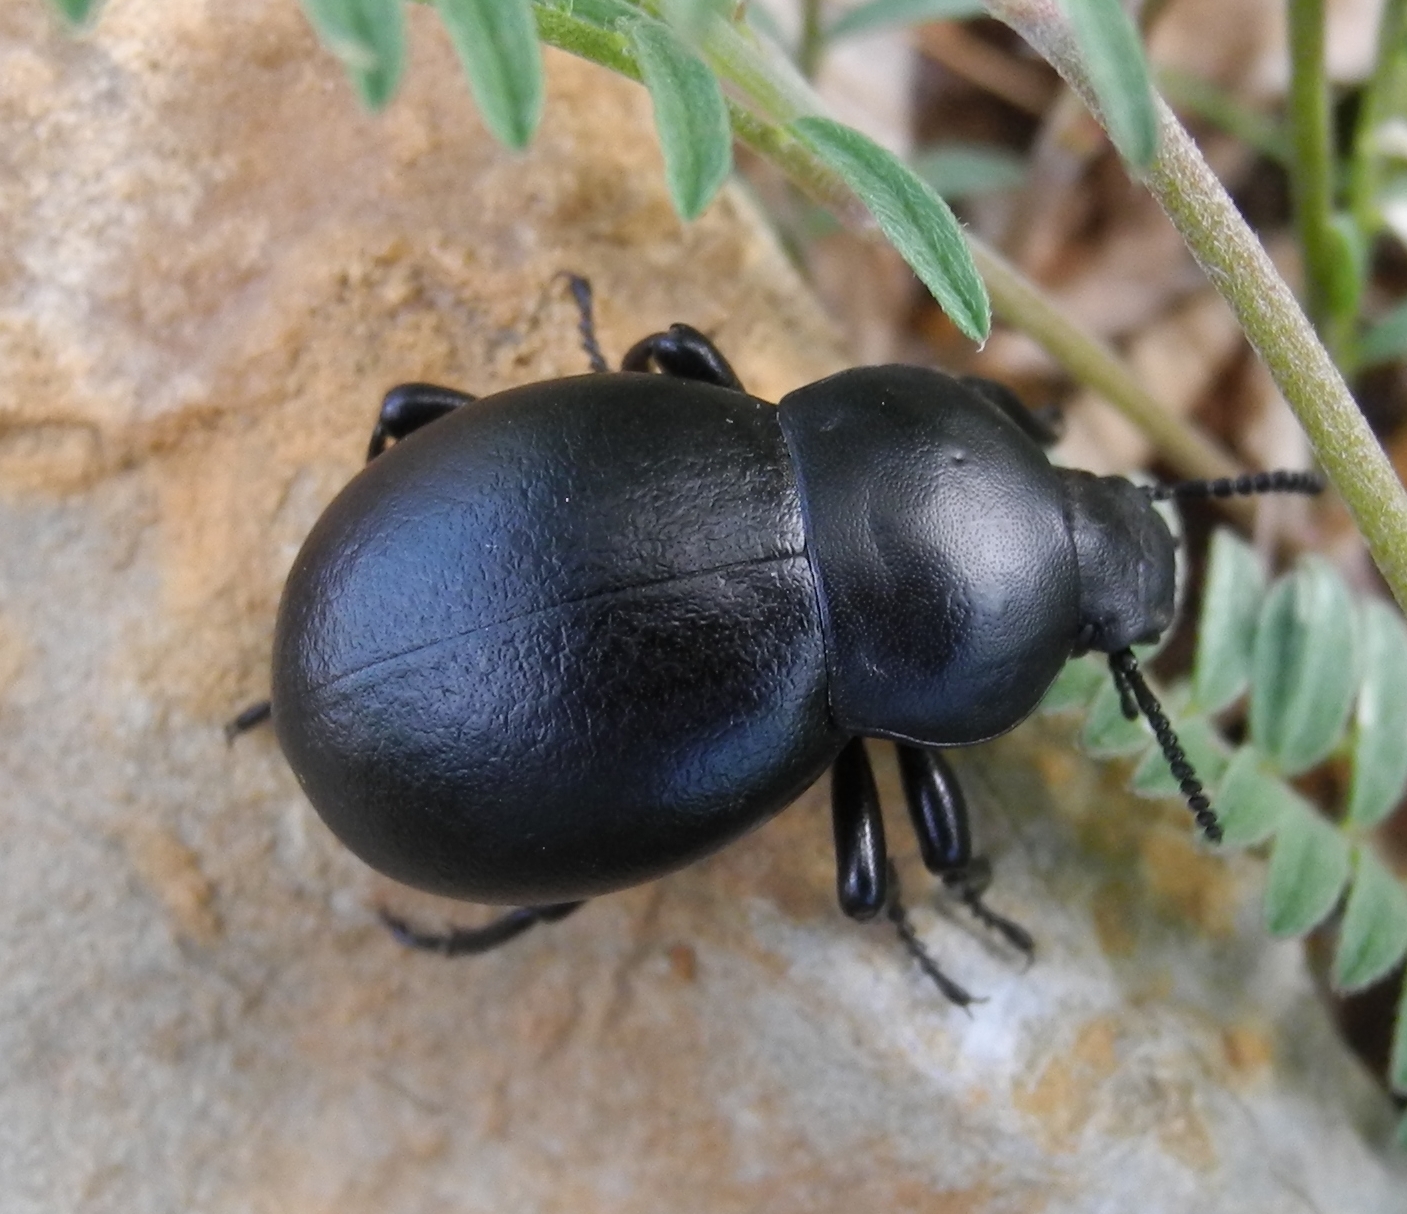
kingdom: Animalia
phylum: Arthropoda
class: Insecta
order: Coleoptera
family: Tenebrionidae
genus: Gnaptor
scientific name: Gnaptor spinimanus
